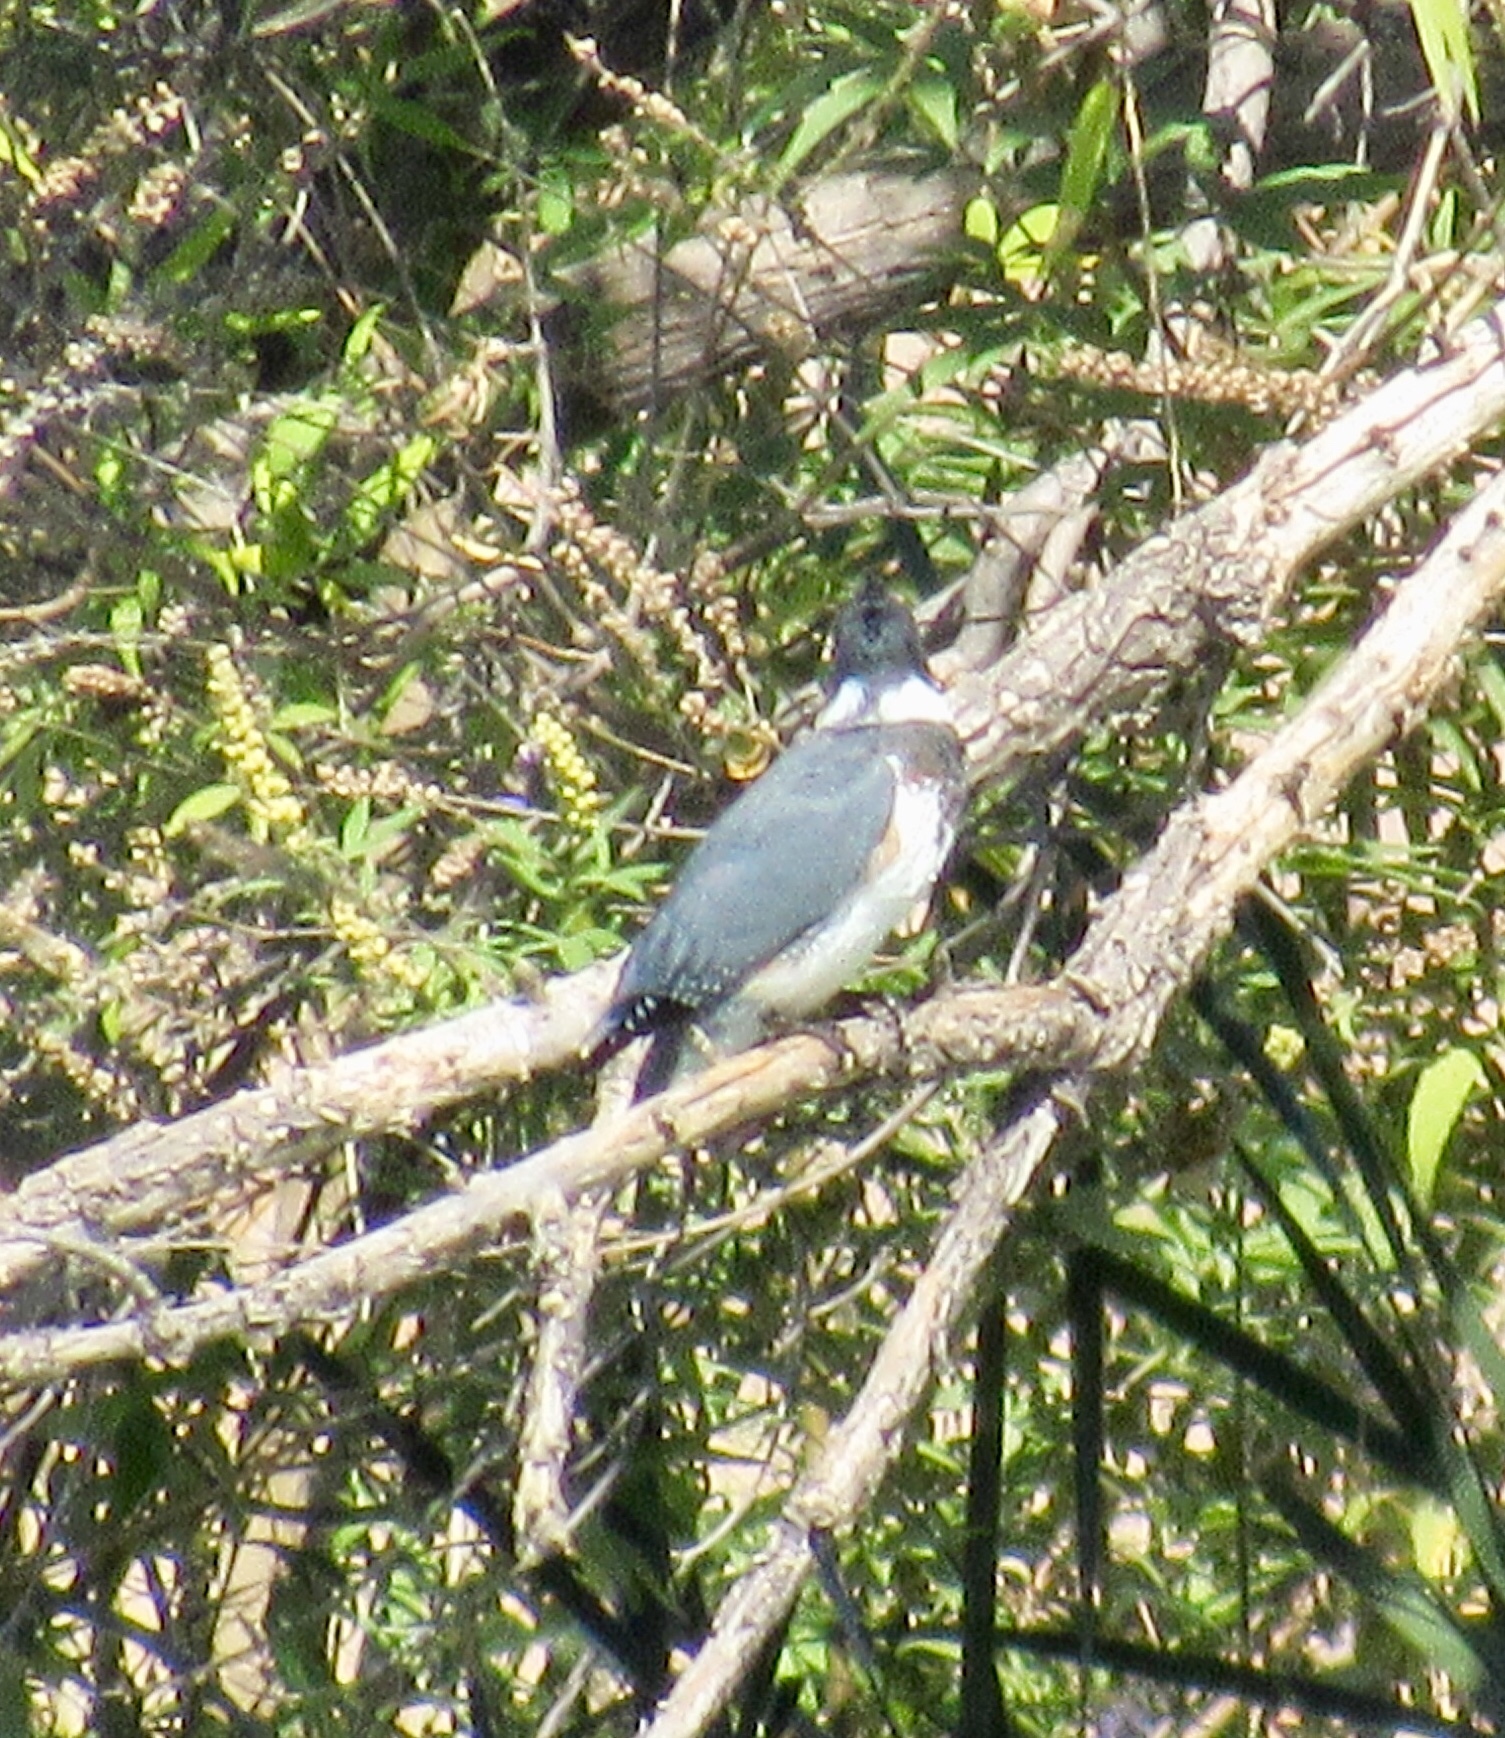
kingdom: Animalia
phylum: Chordata
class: Aves
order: Coraciiformes
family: Alcedinidae
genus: Megaceryle
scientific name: Megaceryle alcyon
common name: Belted kingfisher
